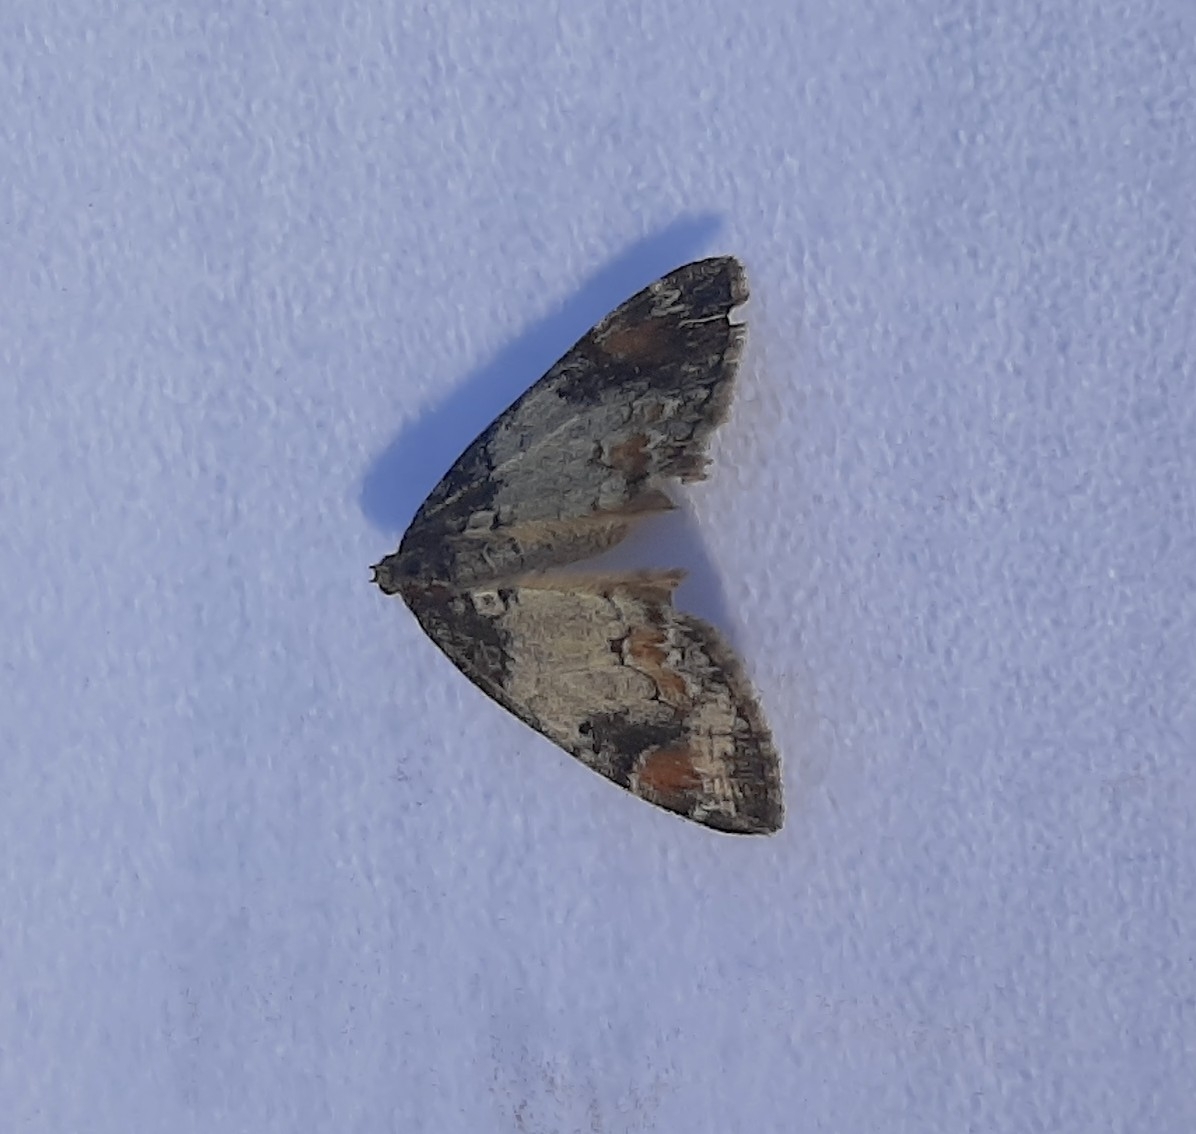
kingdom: Animalia
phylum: Arthropoda
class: Insecta
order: Lepidoptera
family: Geometridae
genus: Dysstroma
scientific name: Dysstroma latefasciata
